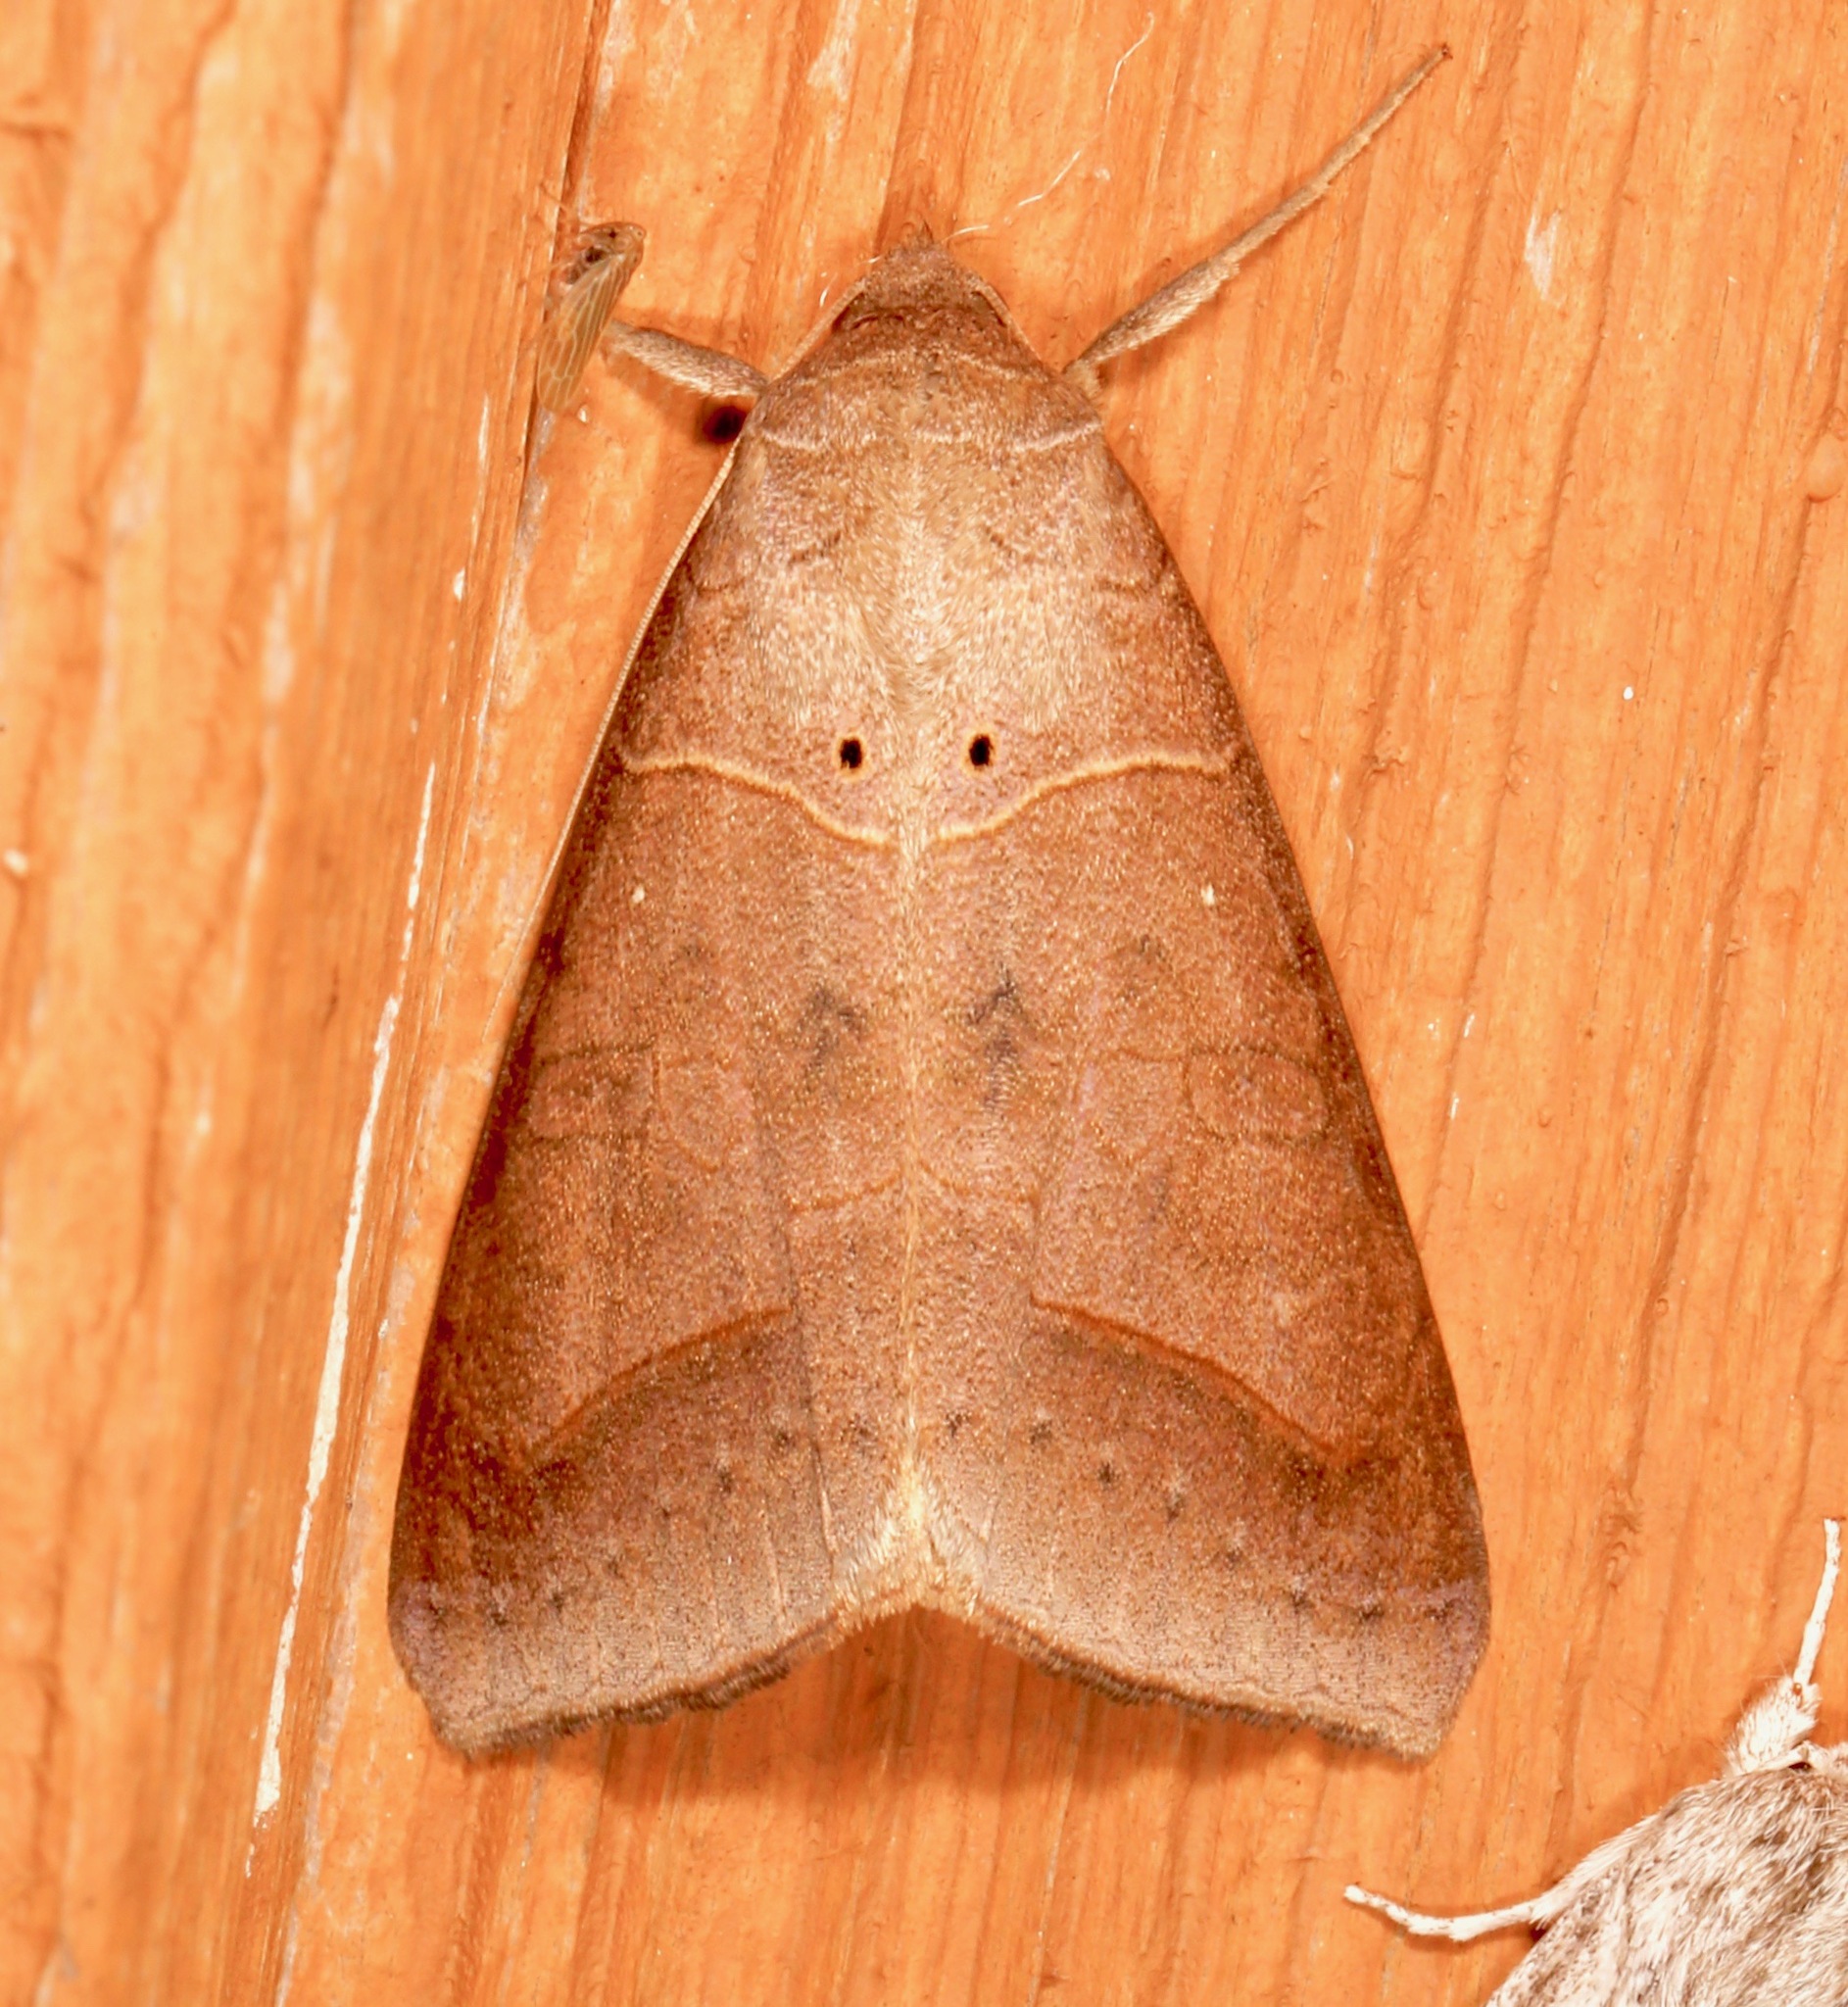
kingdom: Animalia
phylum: Arthropoda
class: Insecta
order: Lepidoptera
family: Erebidae
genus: Mocis
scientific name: Mocis marcida
